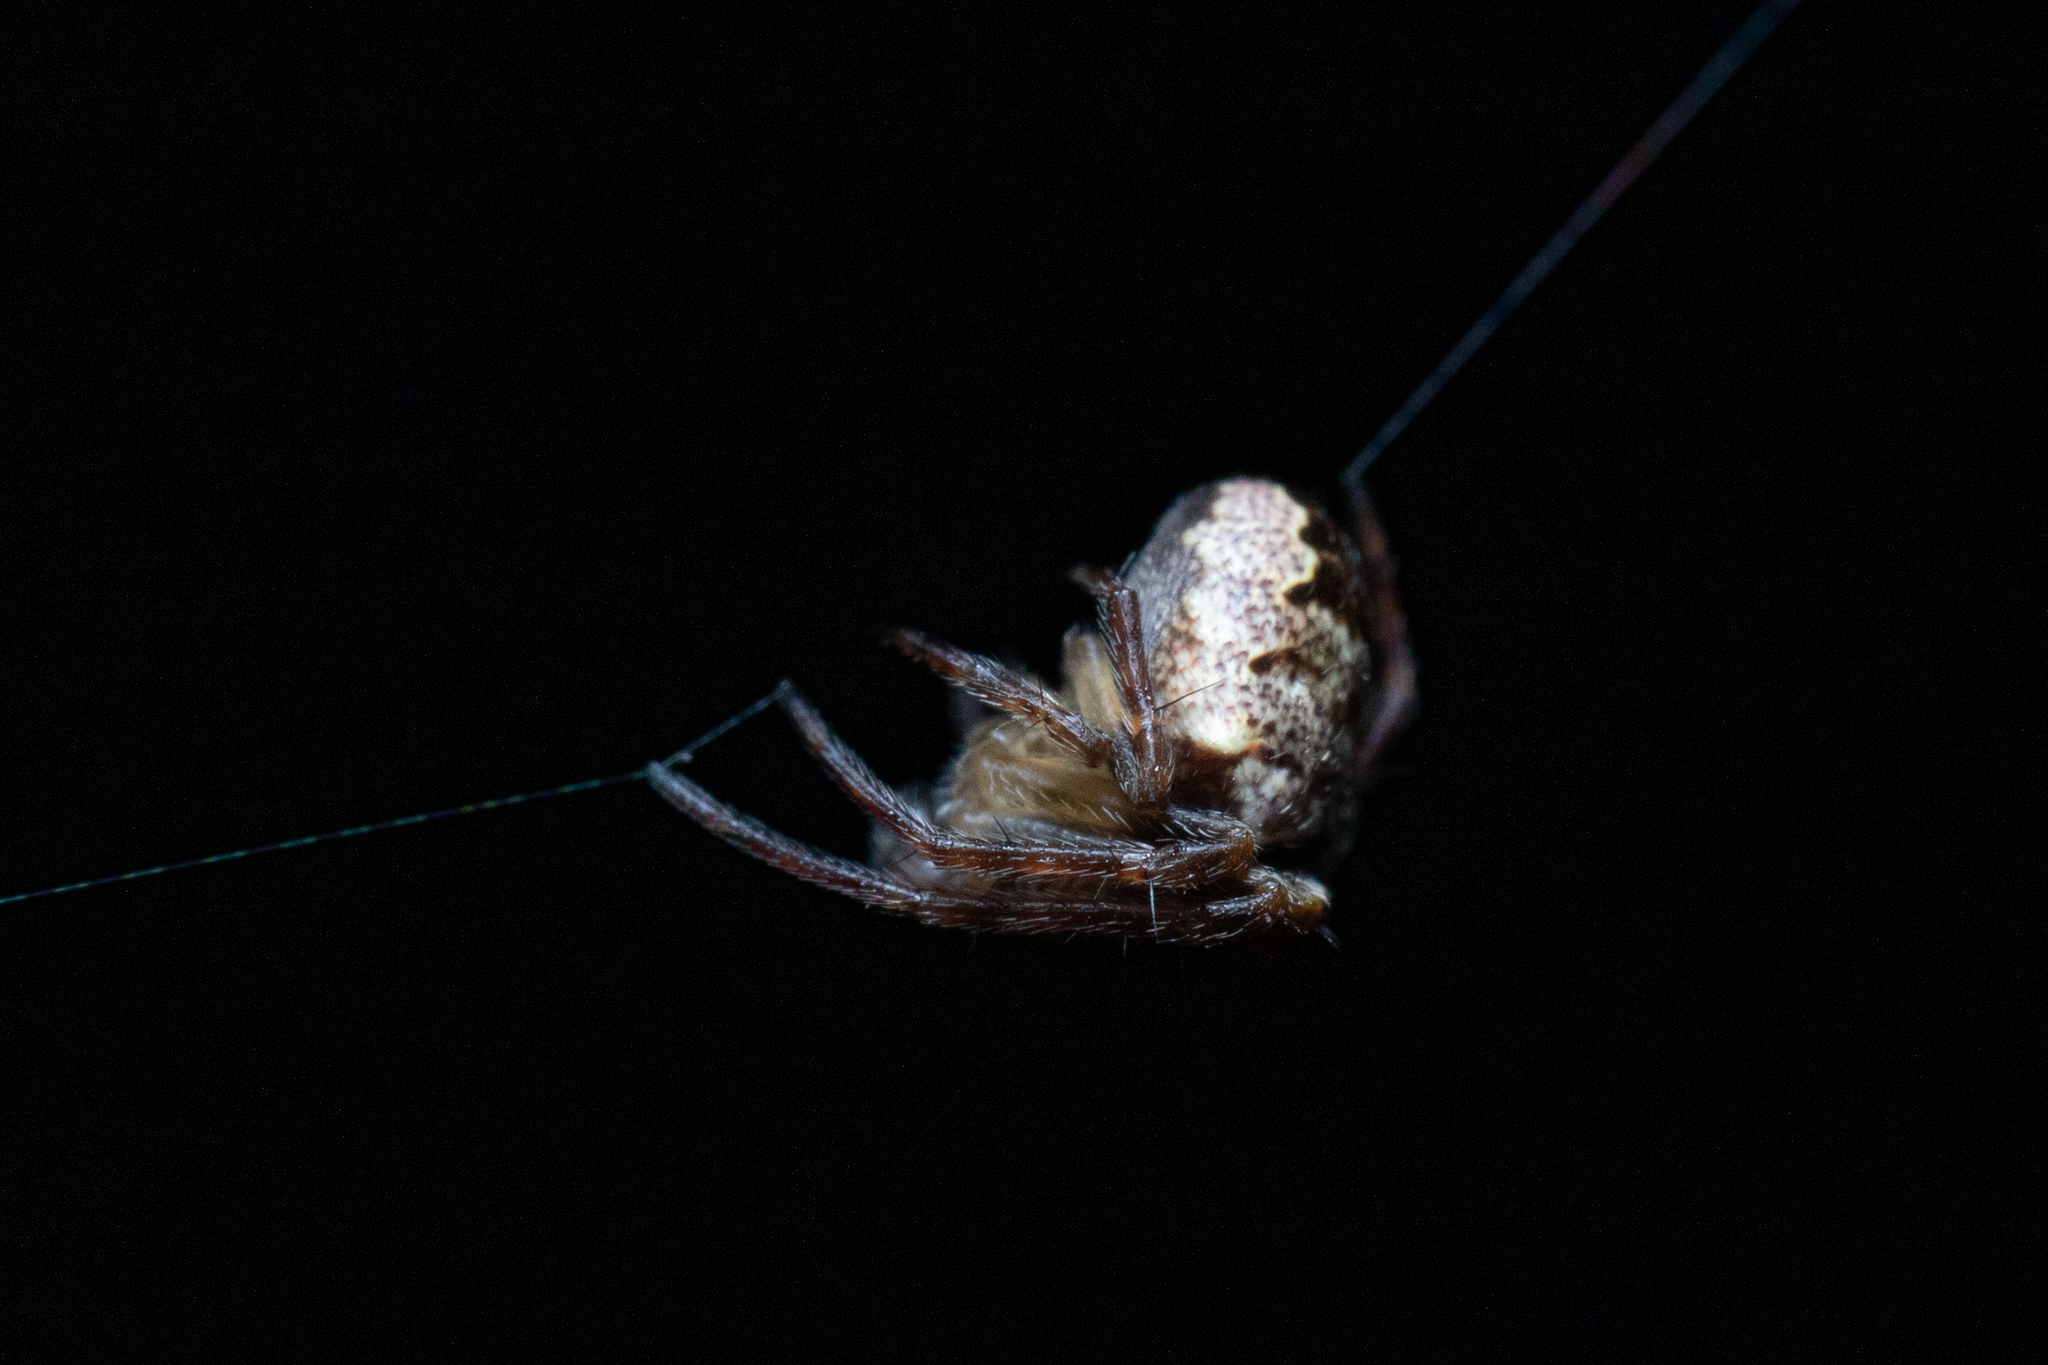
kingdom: Animalia
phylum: Arthropoda
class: Arachnida
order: Araneae
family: Araneidae
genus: Zilla
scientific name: Zilla diodia
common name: Zilla diodia
